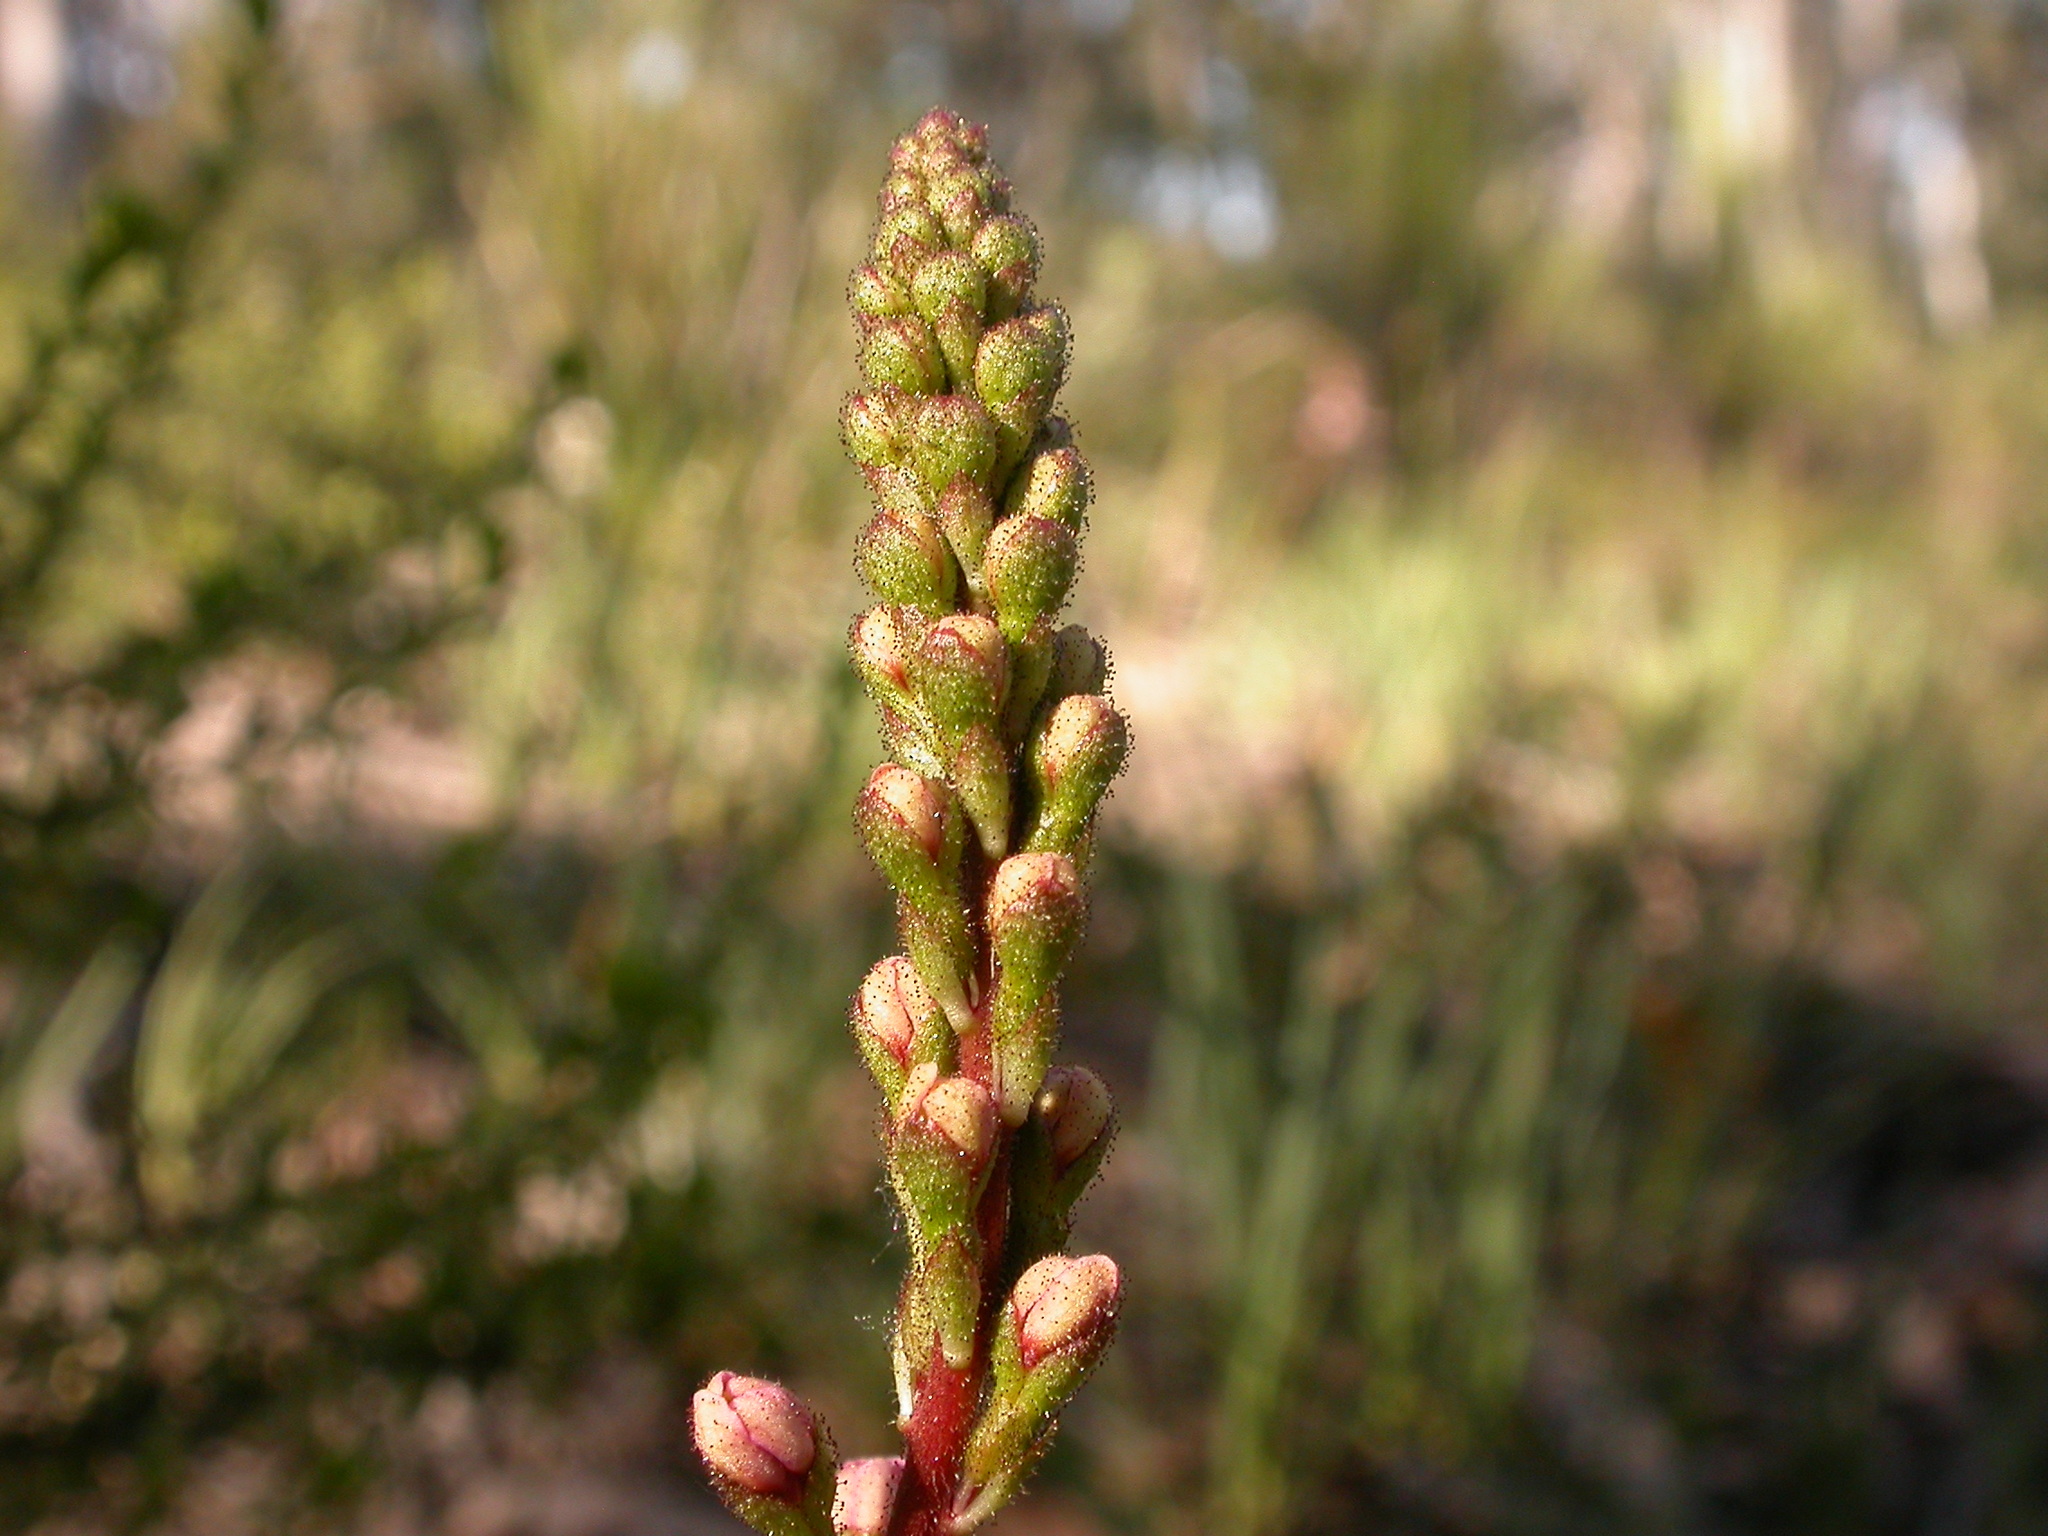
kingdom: Plantae
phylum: Tracheophyta
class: Magnoliopsida
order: Asterales
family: Stylidiaceae
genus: Stylidium
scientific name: Stylidium graminifolium
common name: Grass triggerplant
